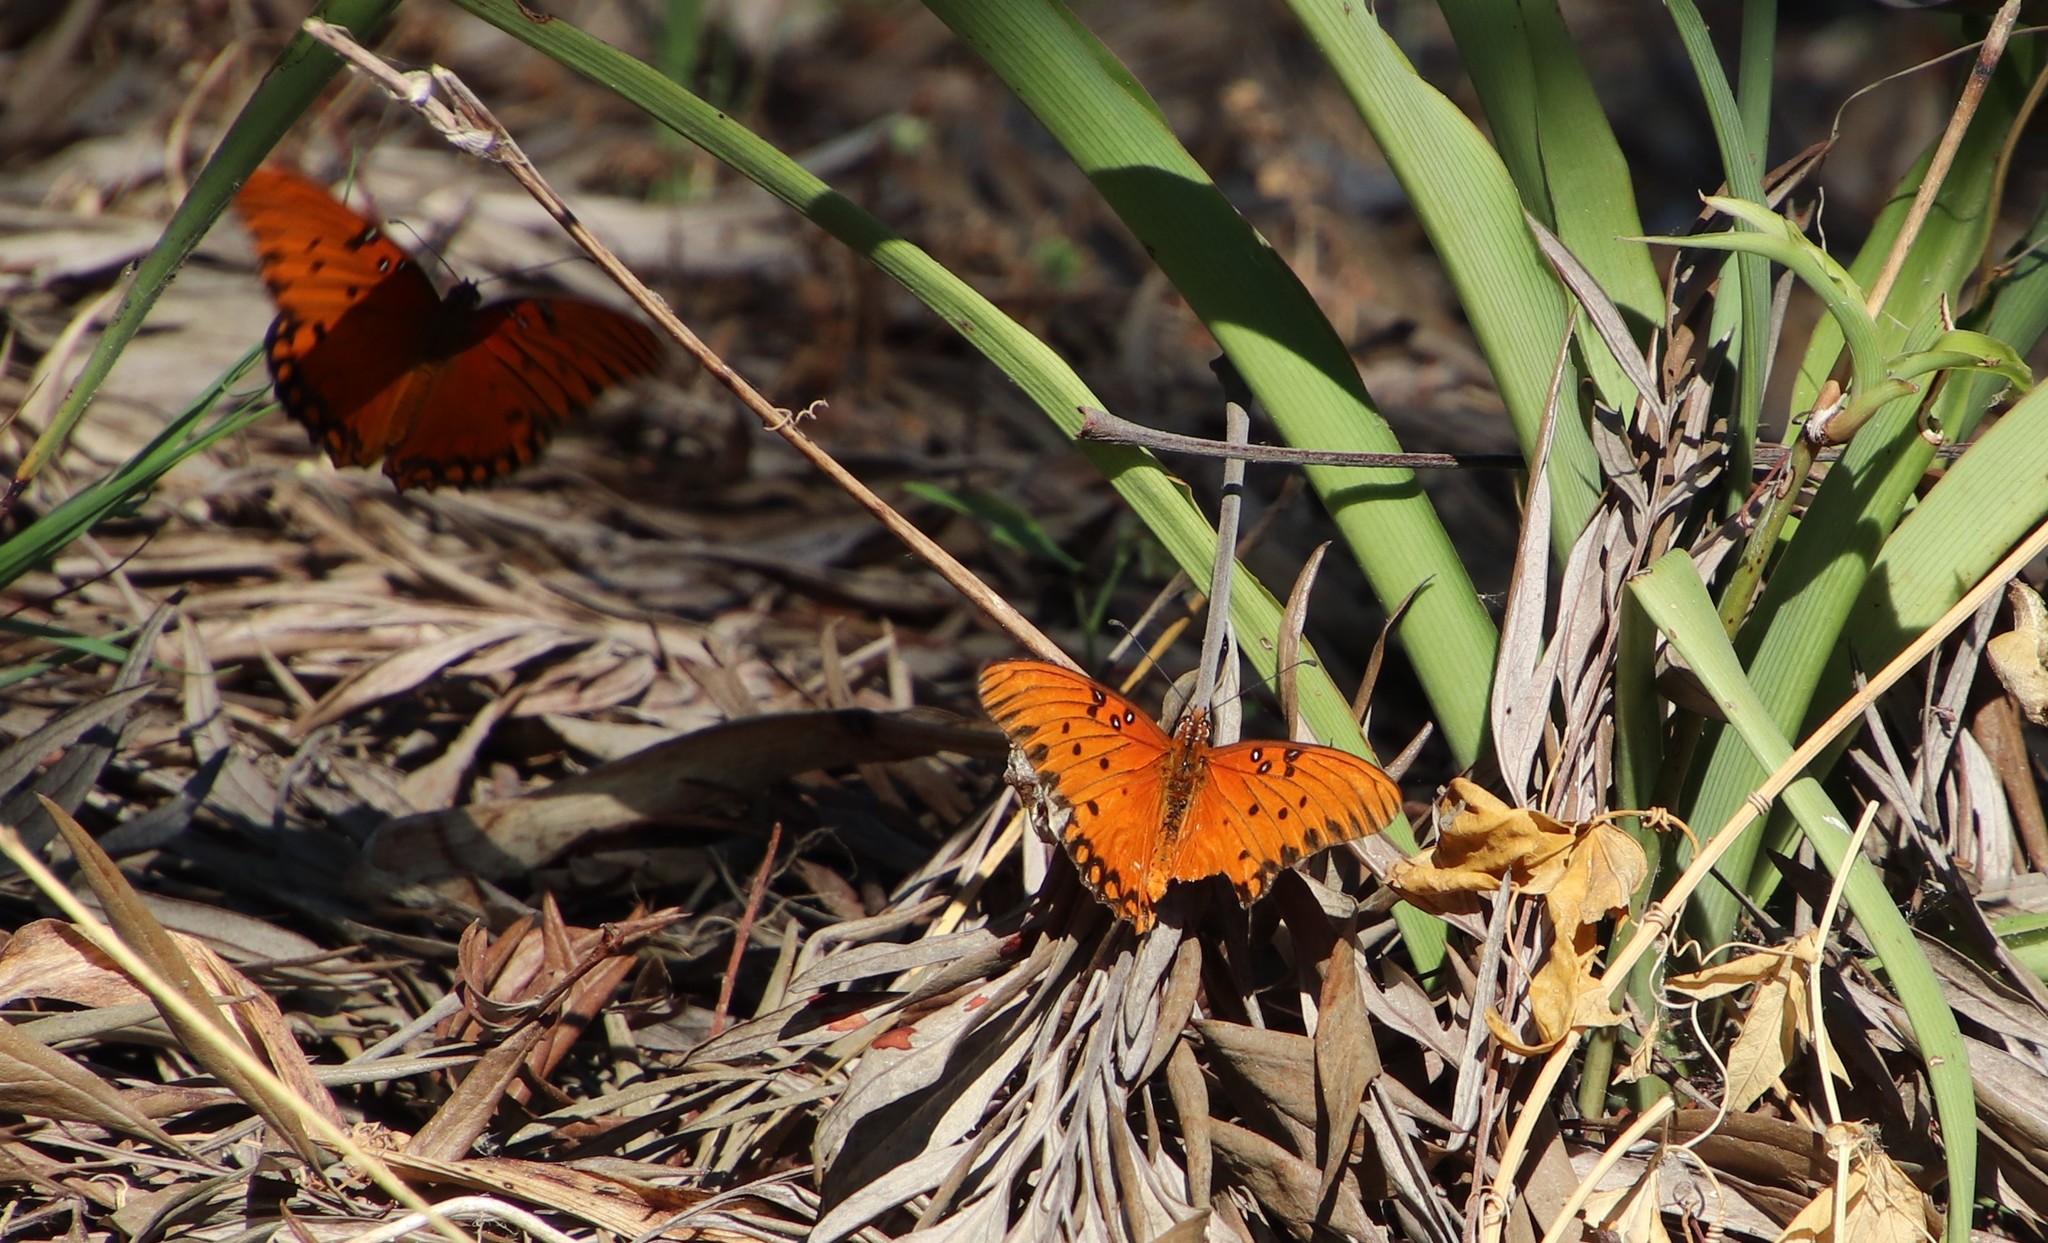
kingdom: Animalia
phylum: Arthropoda
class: Insecta
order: Lepidoptera
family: Nymphalidae
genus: Dione
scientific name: Dione vanillae
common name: Gulf fritillary
